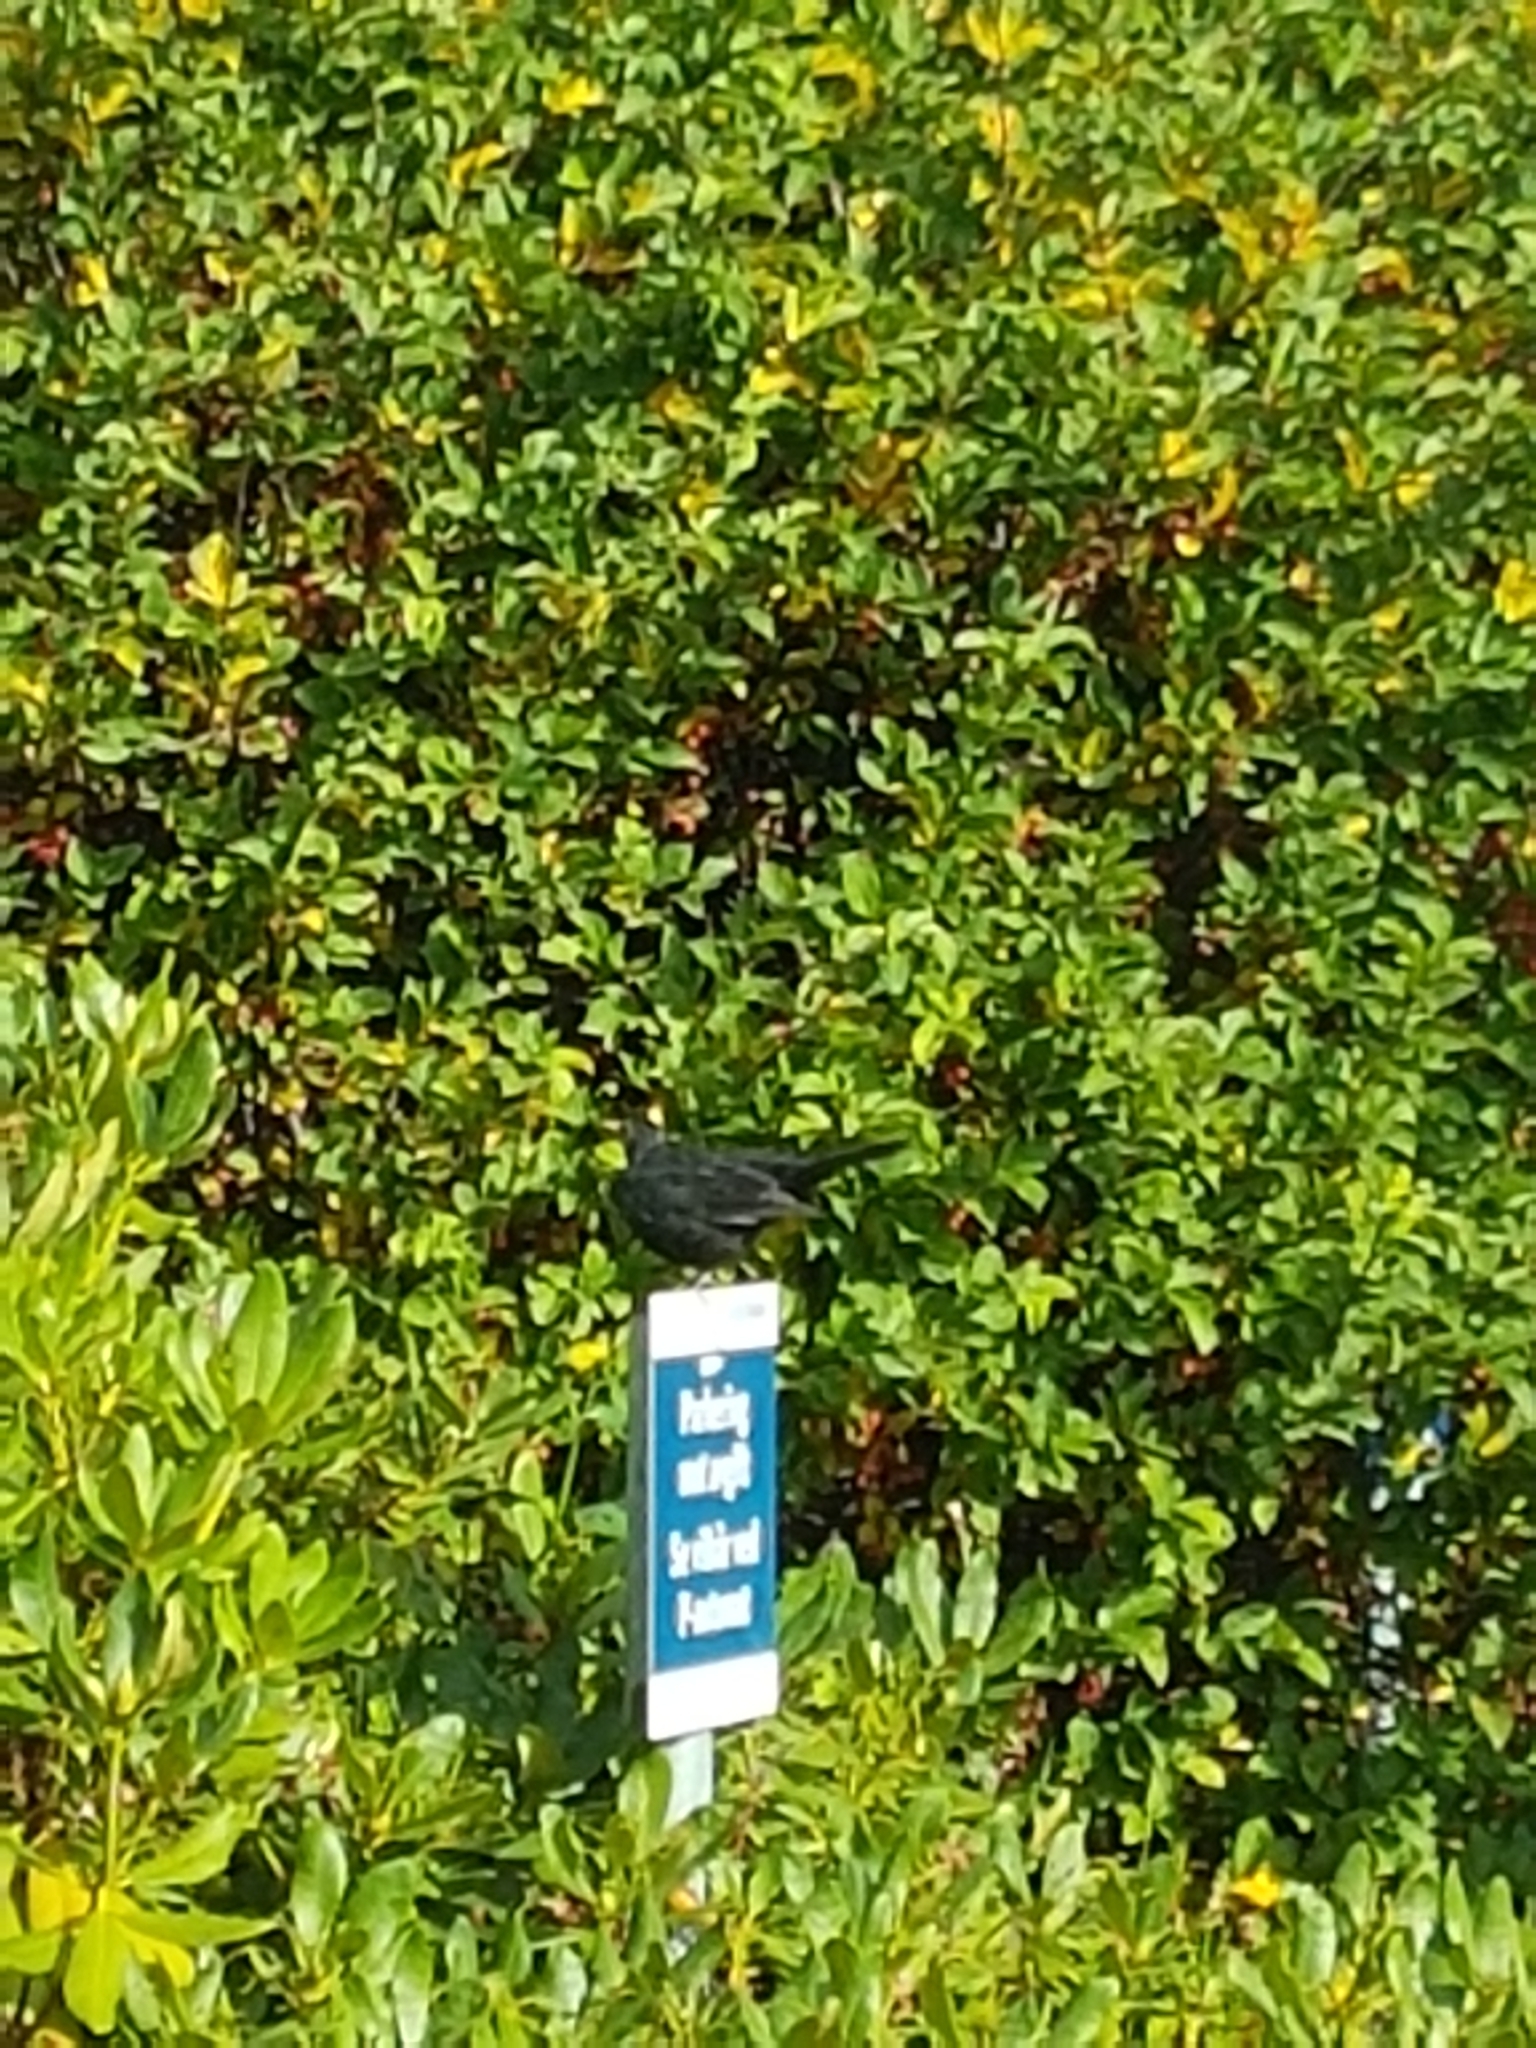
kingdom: Animalia
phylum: Chordata
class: Aves
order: Passeriformes
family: Turdidae
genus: Turdus
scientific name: Turdus merula
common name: Common blackbird
